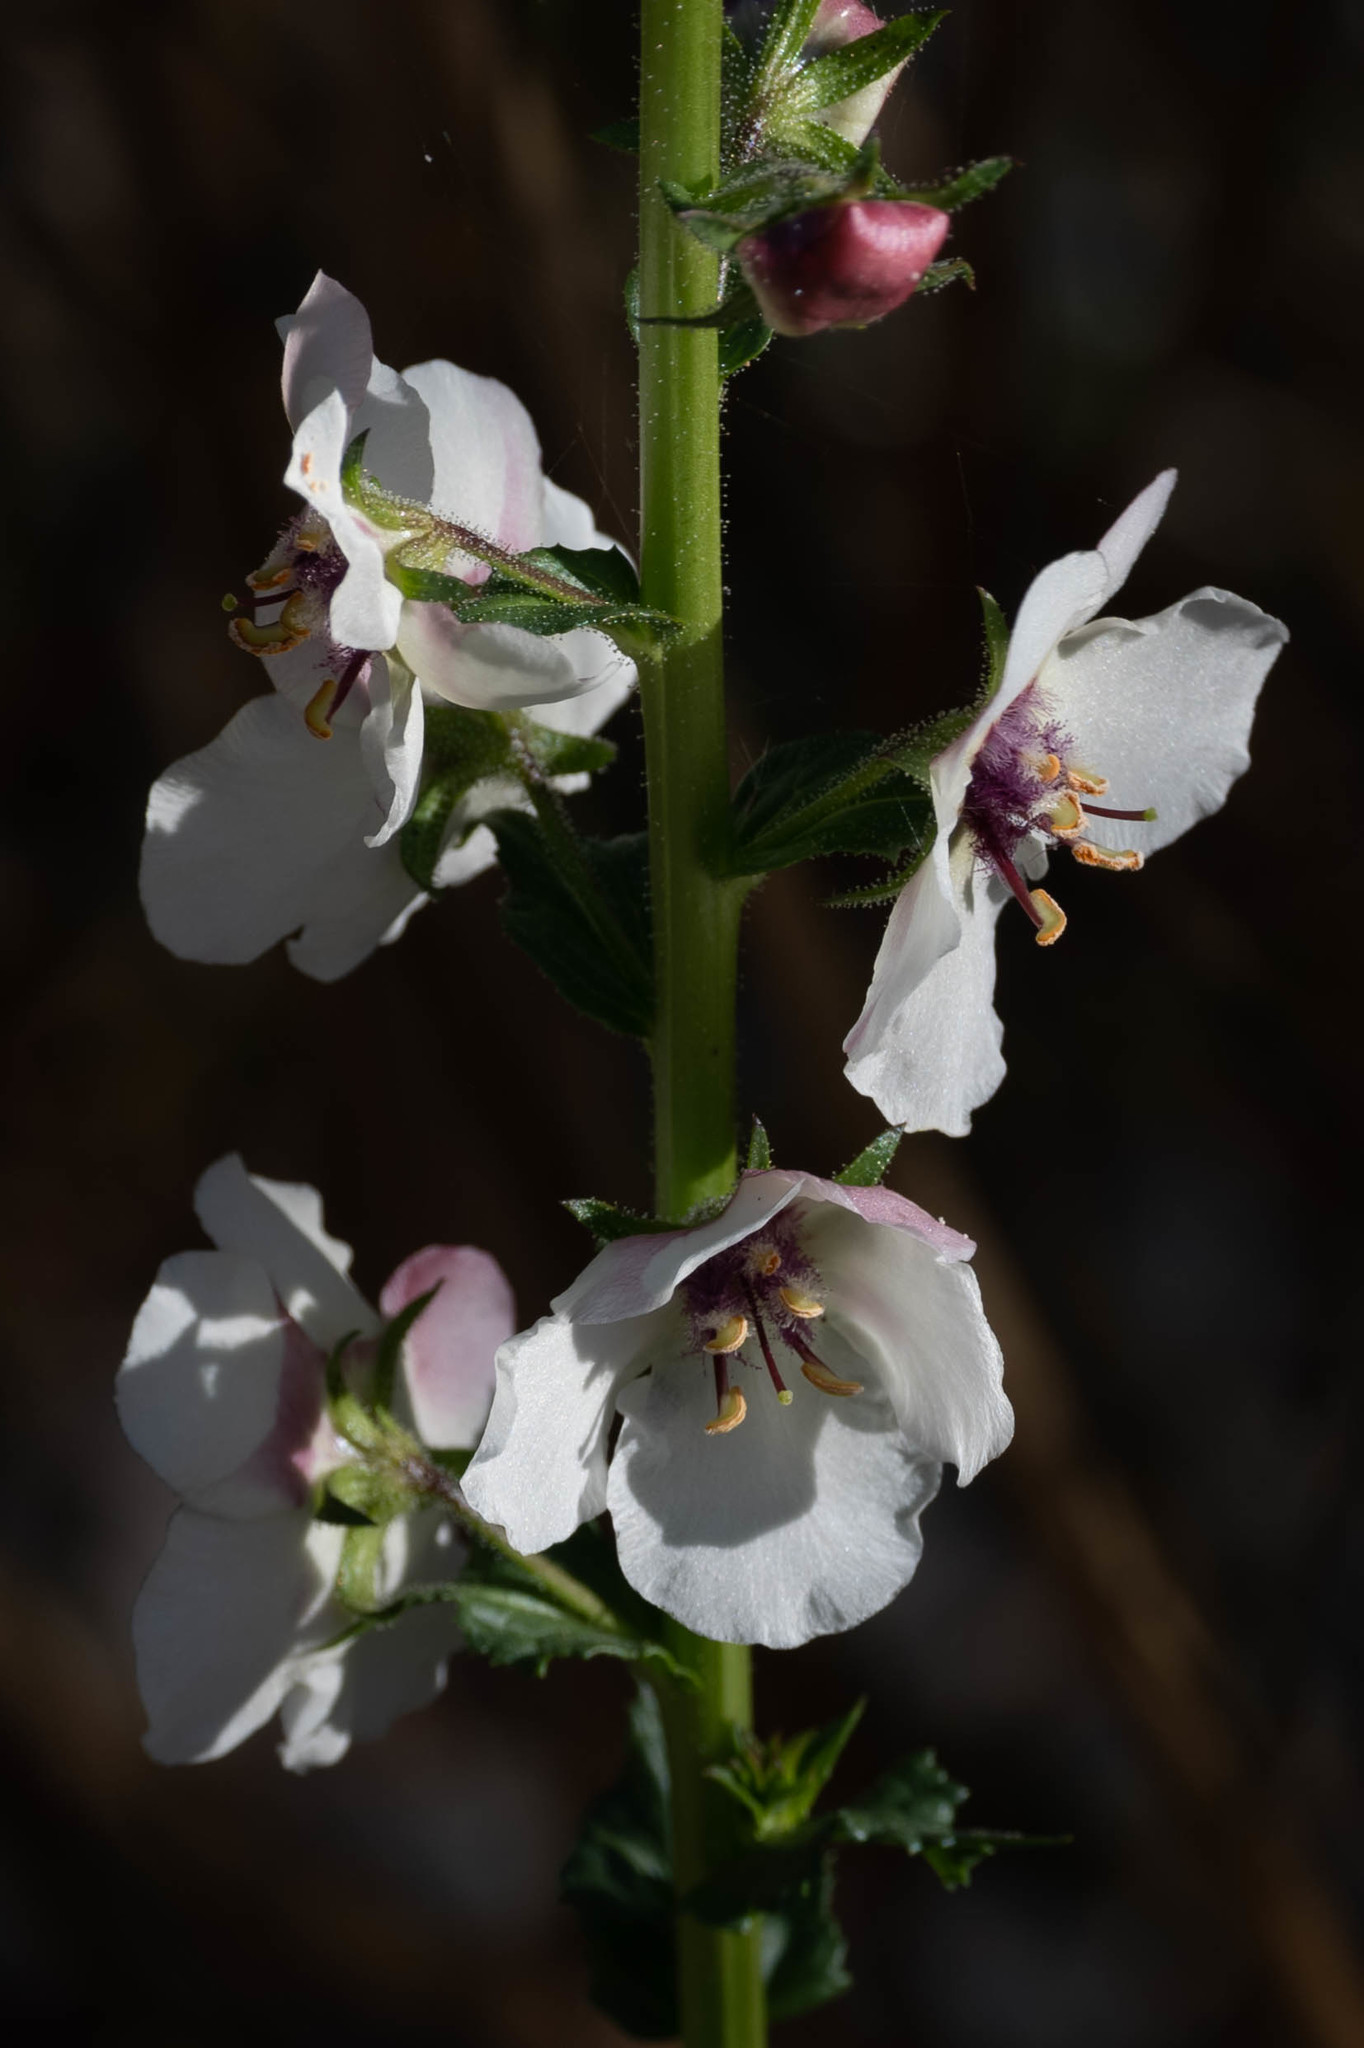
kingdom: Plantae
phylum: Tracheophyta
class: Magnoliopsida
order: Lamiales
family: Scrophulariaceae
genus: Verbascum
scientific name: Verbascum blattaria
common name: Moth mullein
